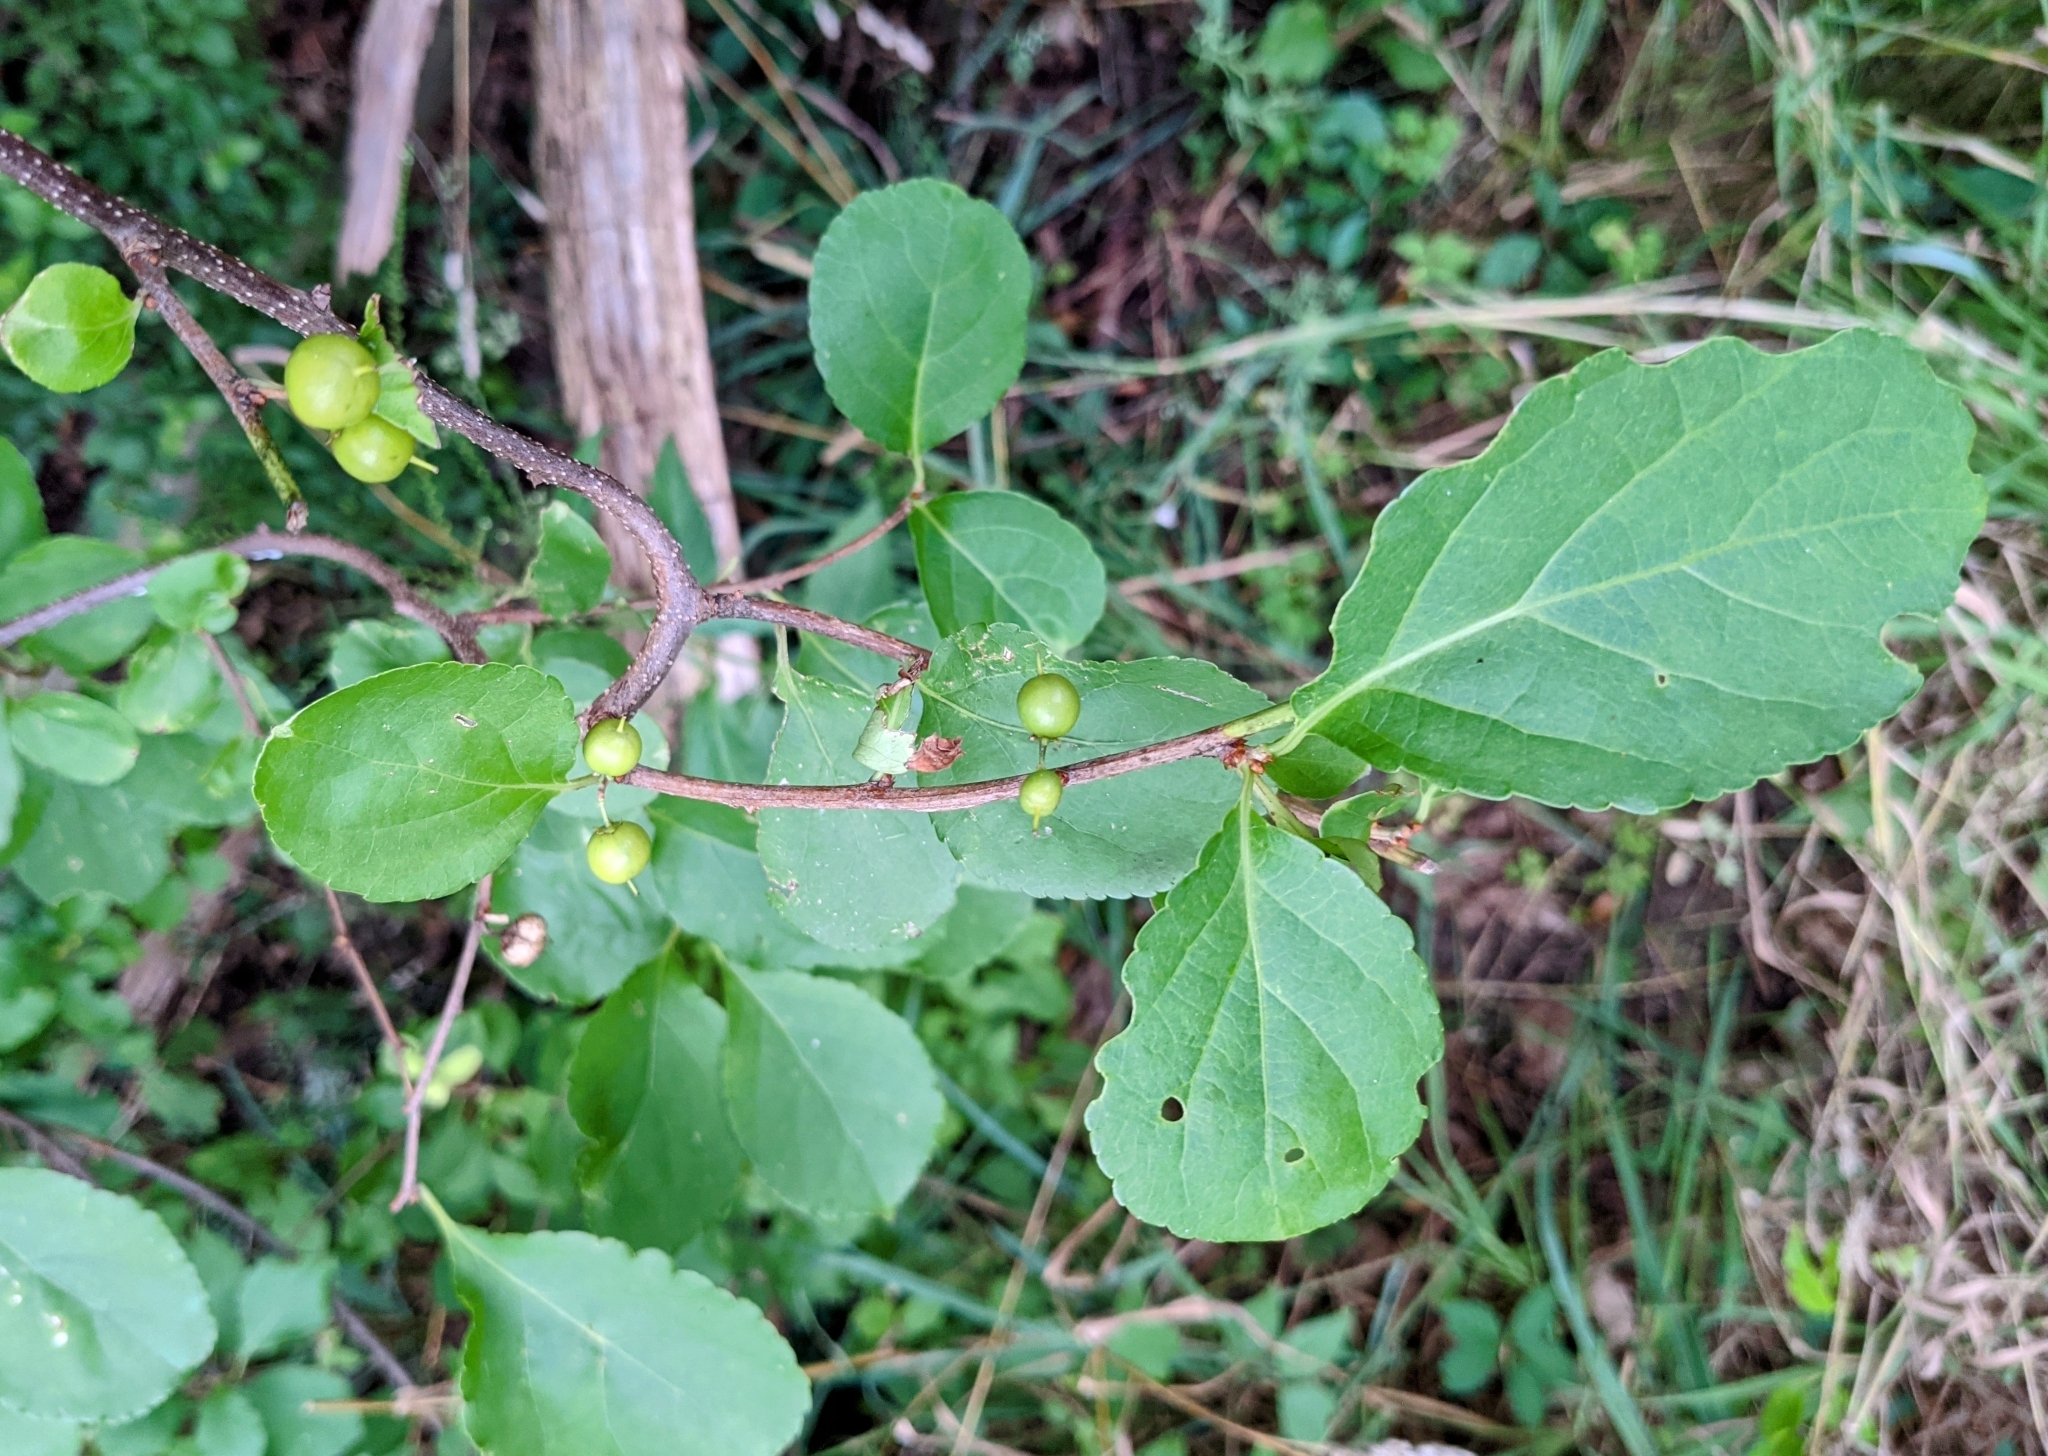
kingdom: Plantae
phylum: Tracheophyta
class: Magnoliopsida
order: Celastrales
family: Celastraceae
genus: Celastrus
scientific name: Celastrus orbiculatus
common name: Oriental bittersweet
